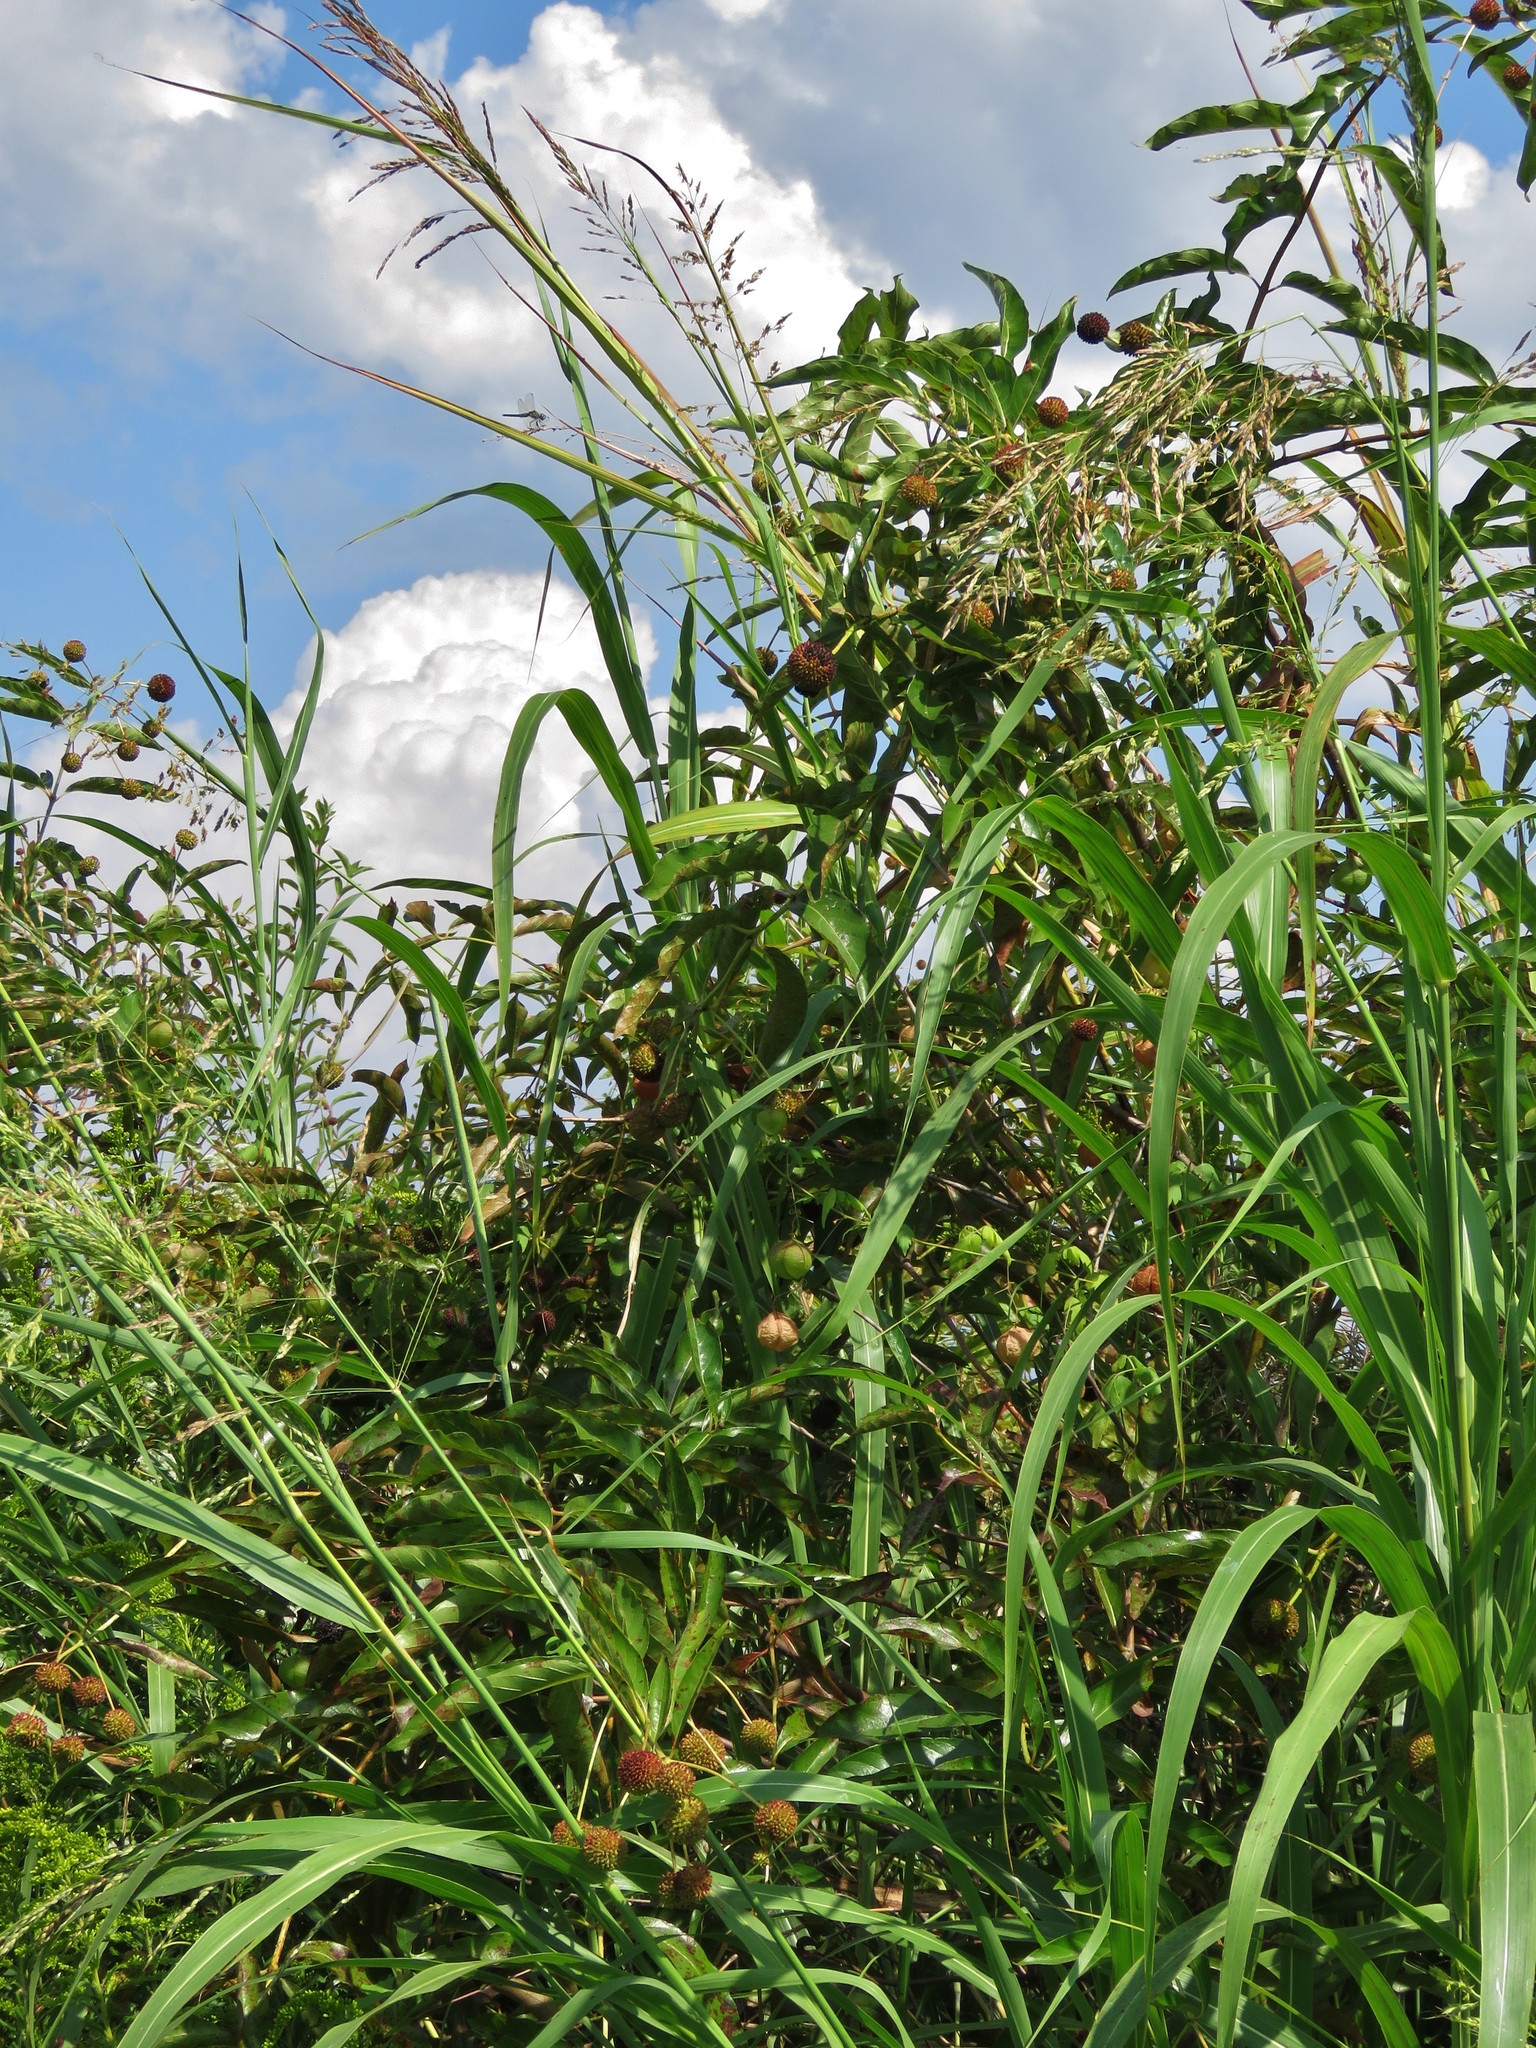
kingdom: Plantae
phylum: Tracheophyta
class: Magnoliopsida
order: Gentianales
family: Rubiaceae
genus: Cephalanthus
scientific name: Cephalanthus occidentalis
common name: Button-willow
